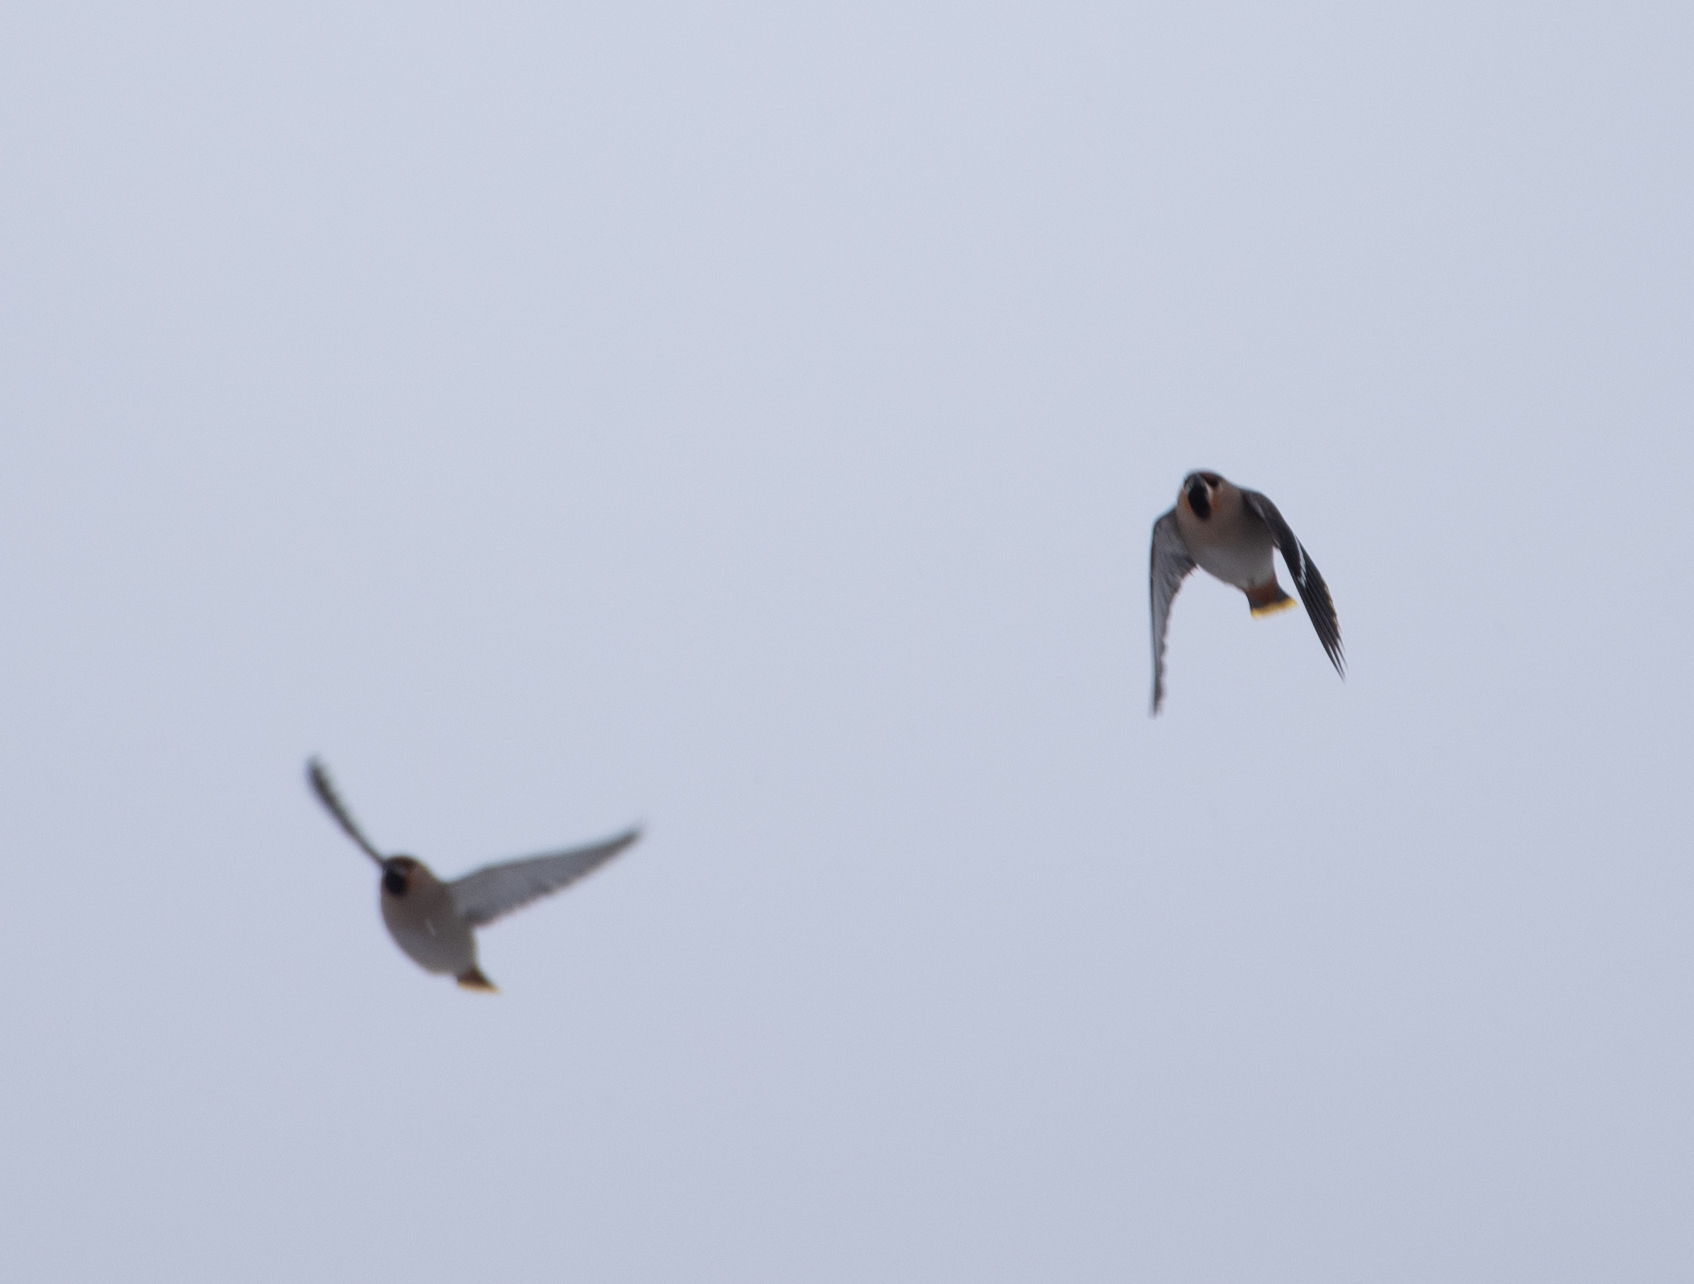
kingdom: Animalia
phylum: Chordata
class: Aves
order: Passeriformes
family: Bombycillidae
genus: Bombycilla
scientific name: Bombycilla garrulus
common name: Bohemian waxwing
